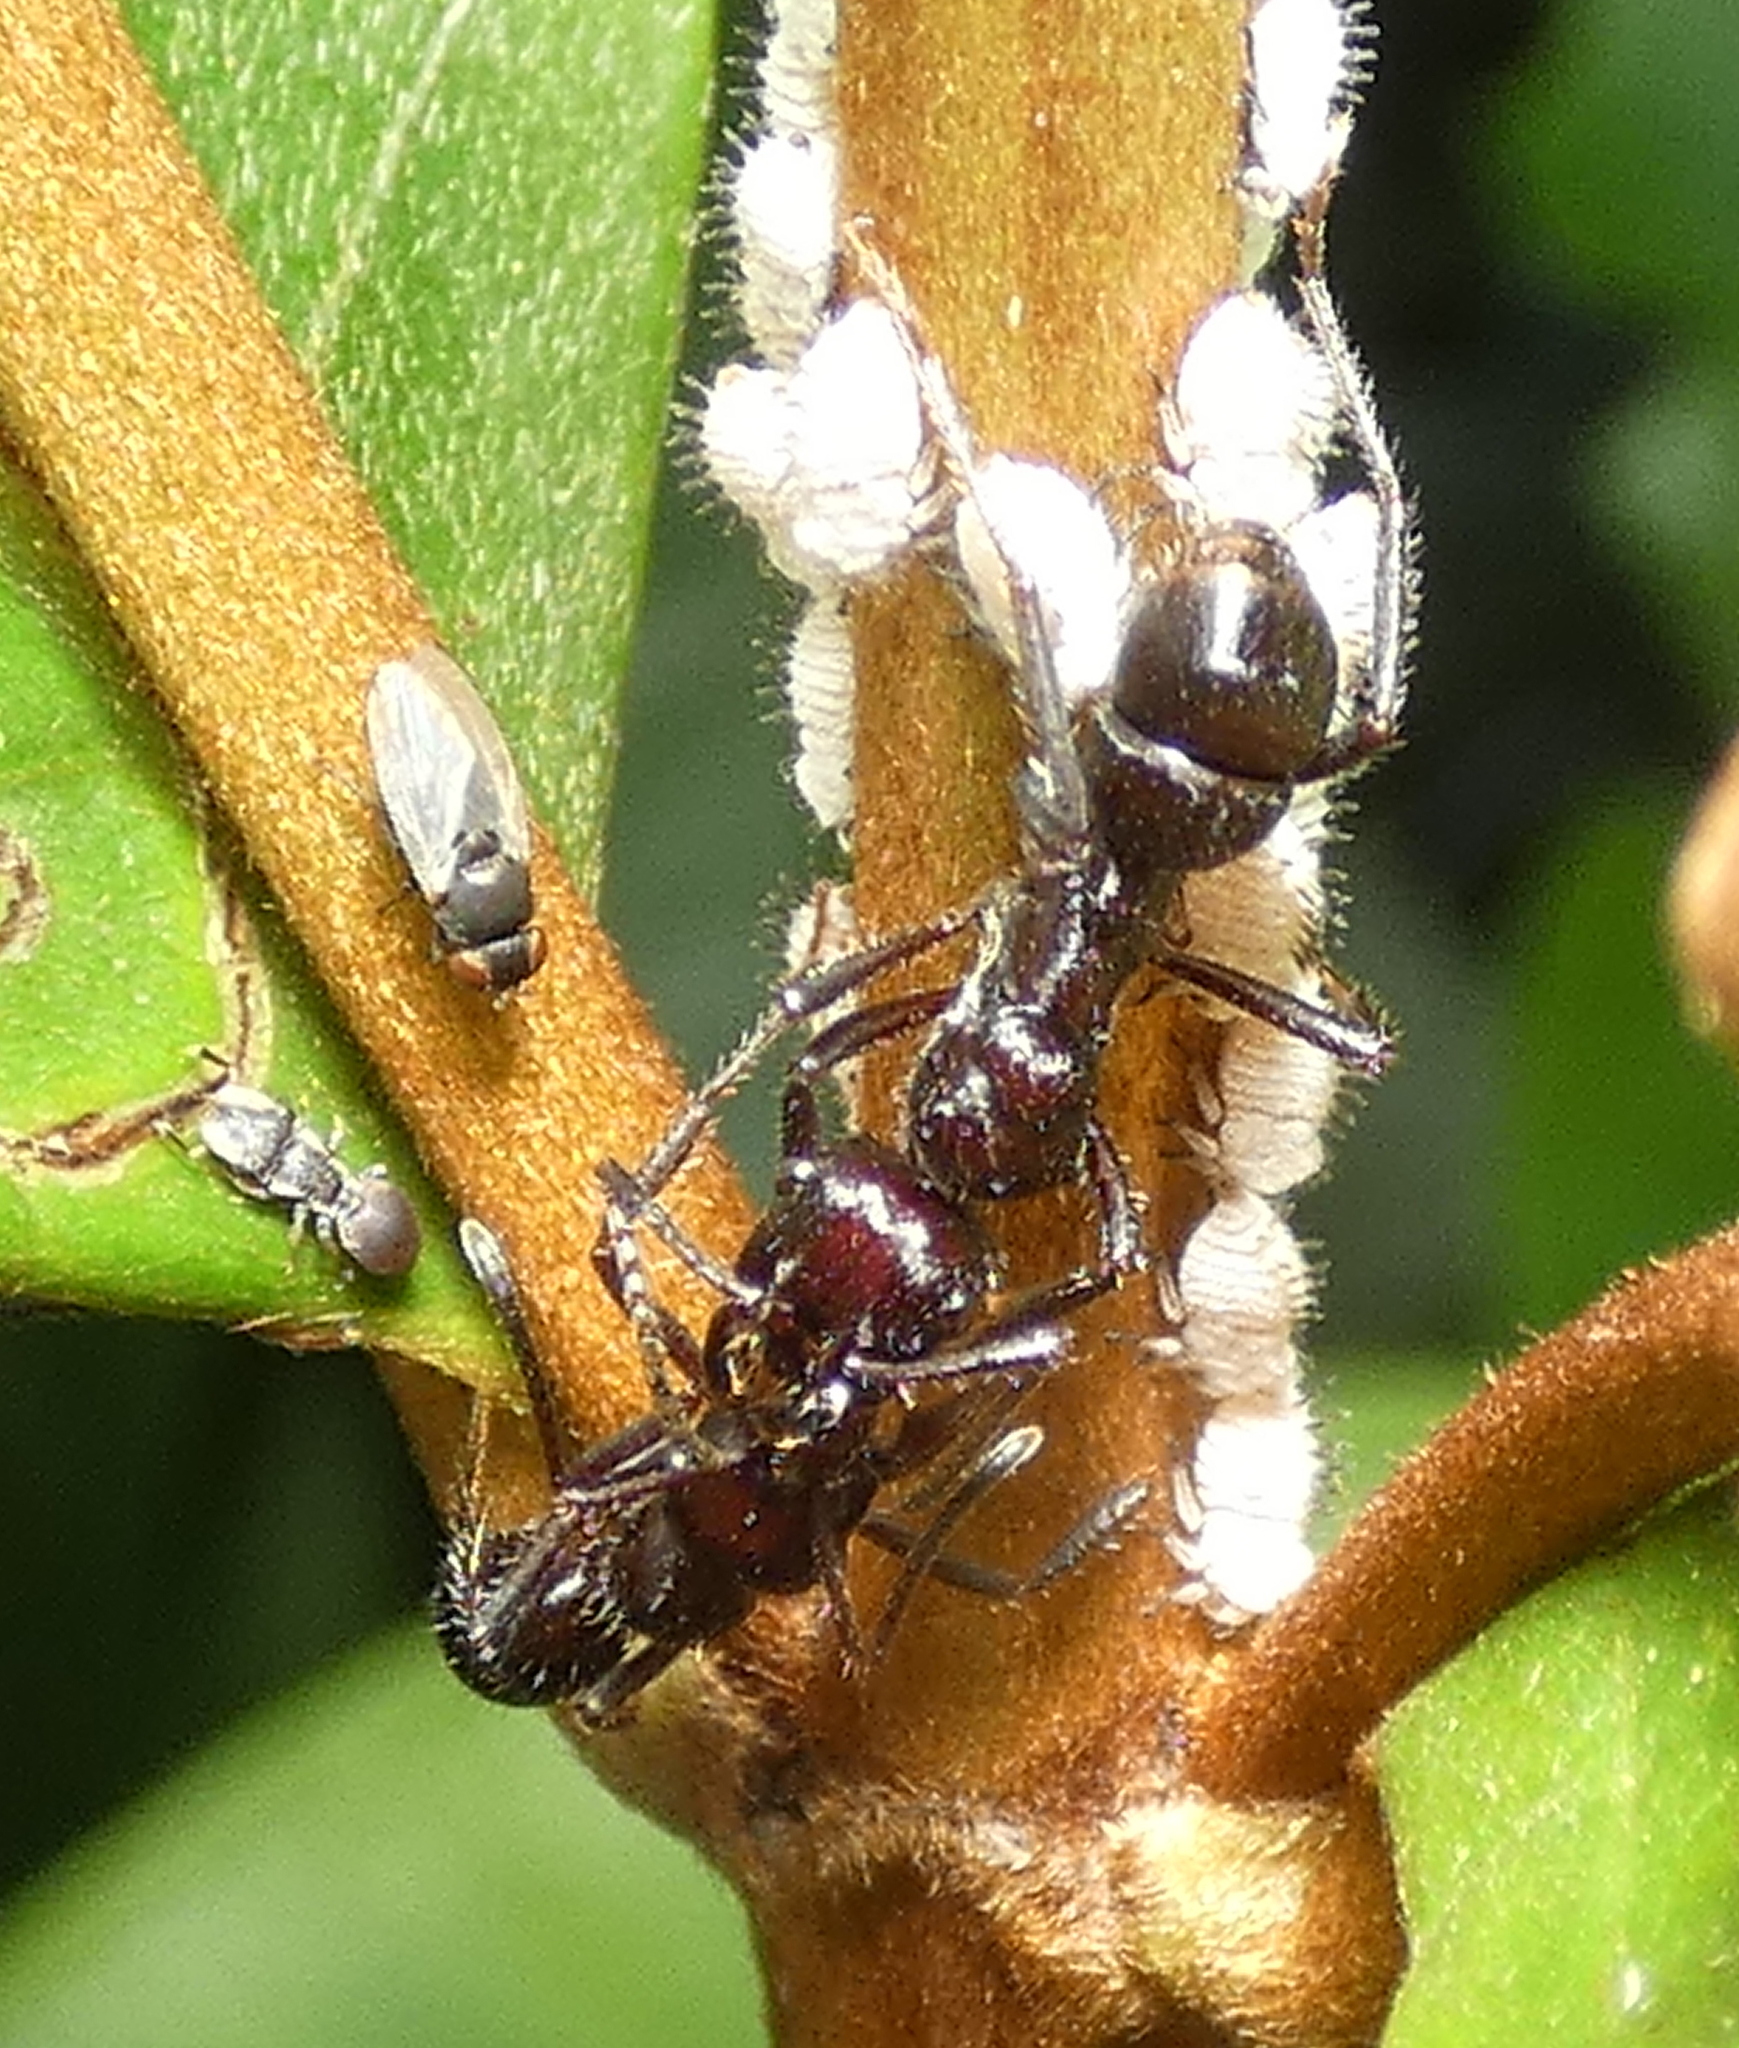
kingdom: Animalia
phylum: Arthropoda
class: Insecta
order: Hymenoptera
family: Formicidae
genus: Ectatomma
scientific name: Ectatomma brunneum
